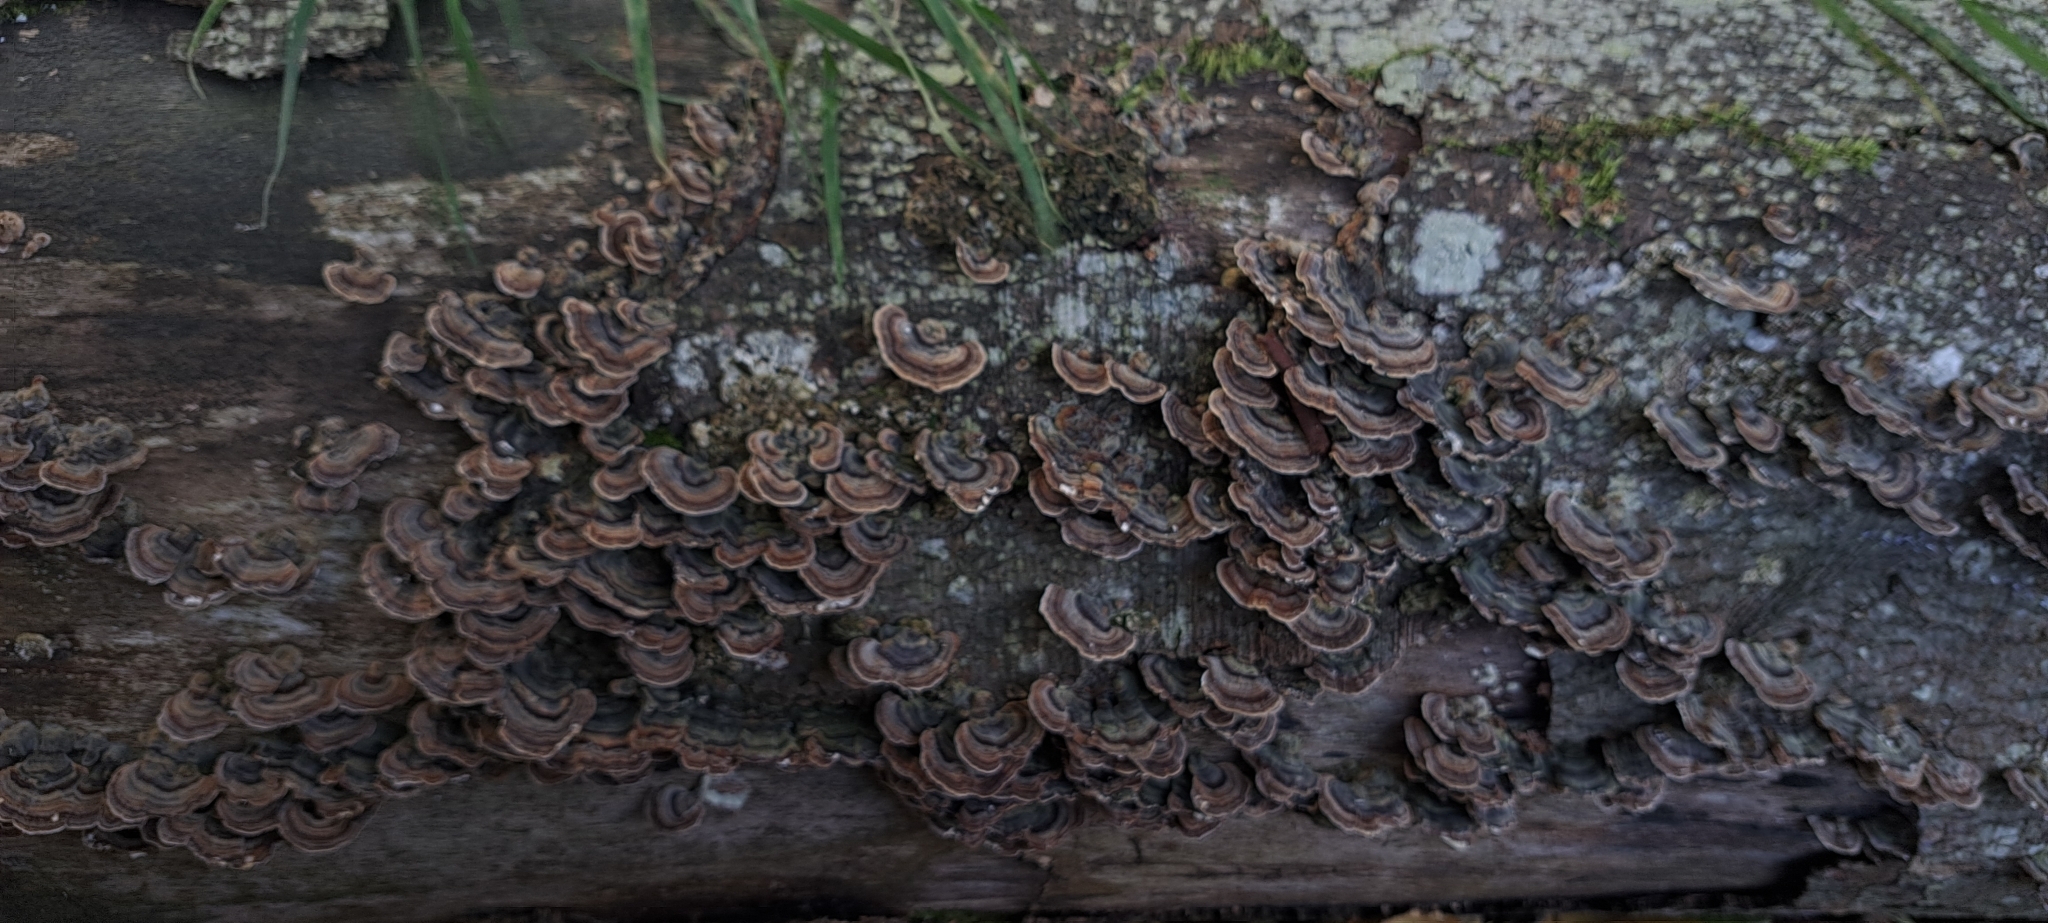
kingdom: Fungi
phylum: Basidiomycota
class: Agaricomycetes
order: Polyporales
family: Polyporaceae
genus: Trametes
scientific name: Trametes versicolor
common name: Turkeytail
